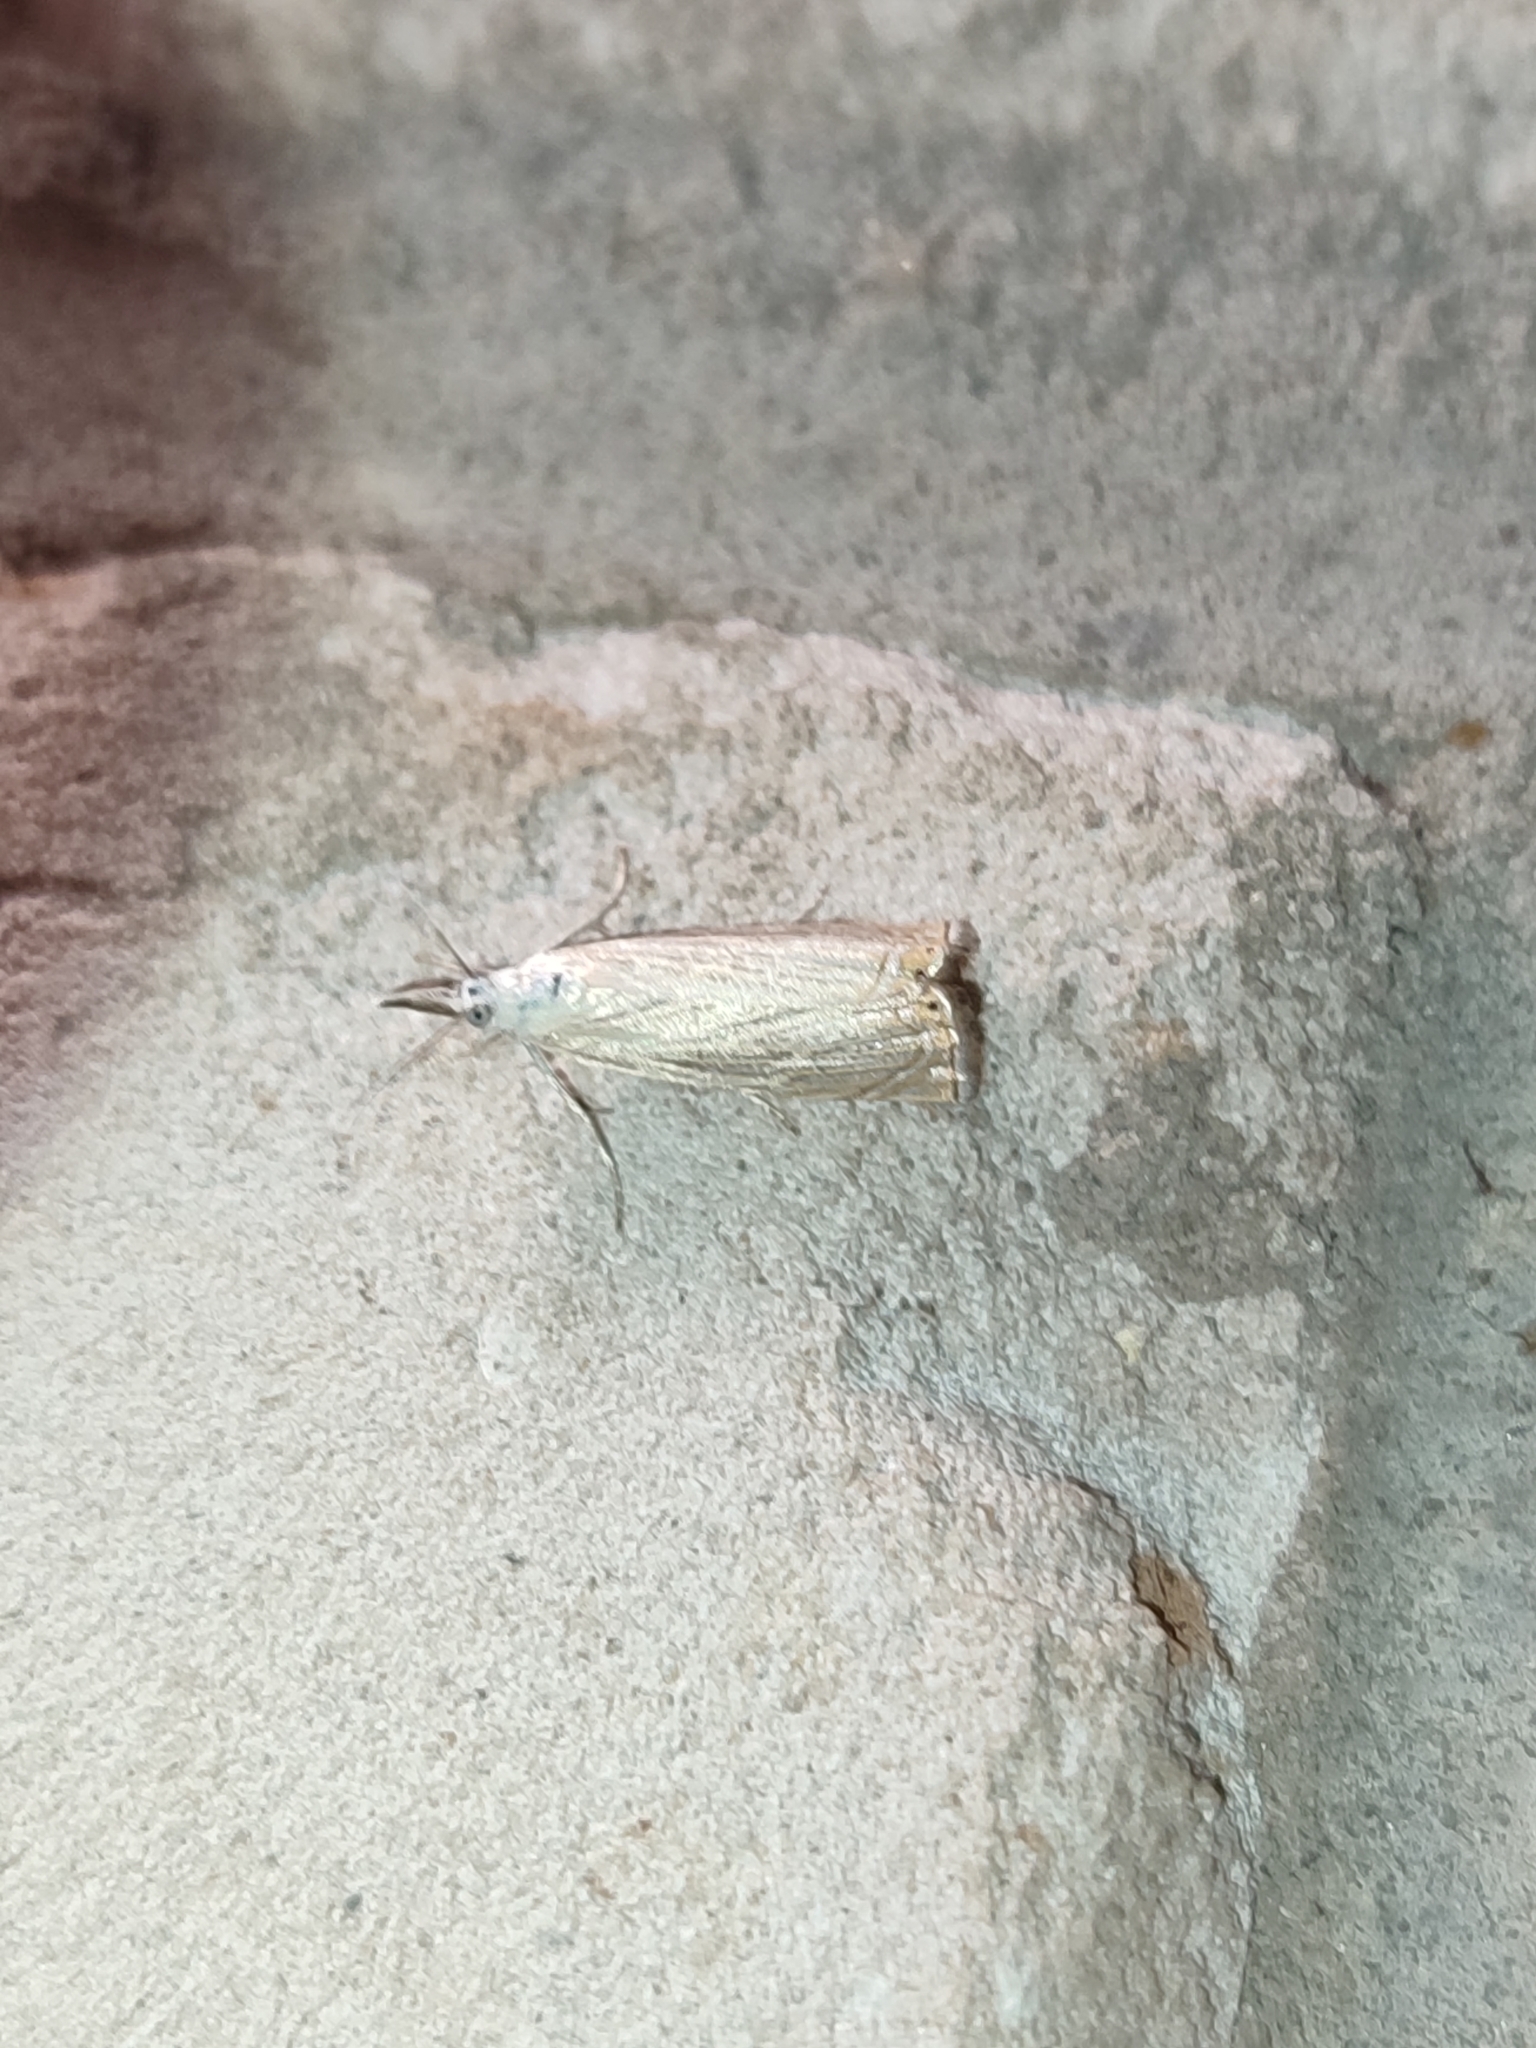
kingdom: Animalia
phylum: Arthropoda
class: Insecta
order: Lepidoptera
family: Crambidae
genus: Chrysoteuchia
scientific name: Chrysoteuchia culmella
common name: Garden grass-veneer
